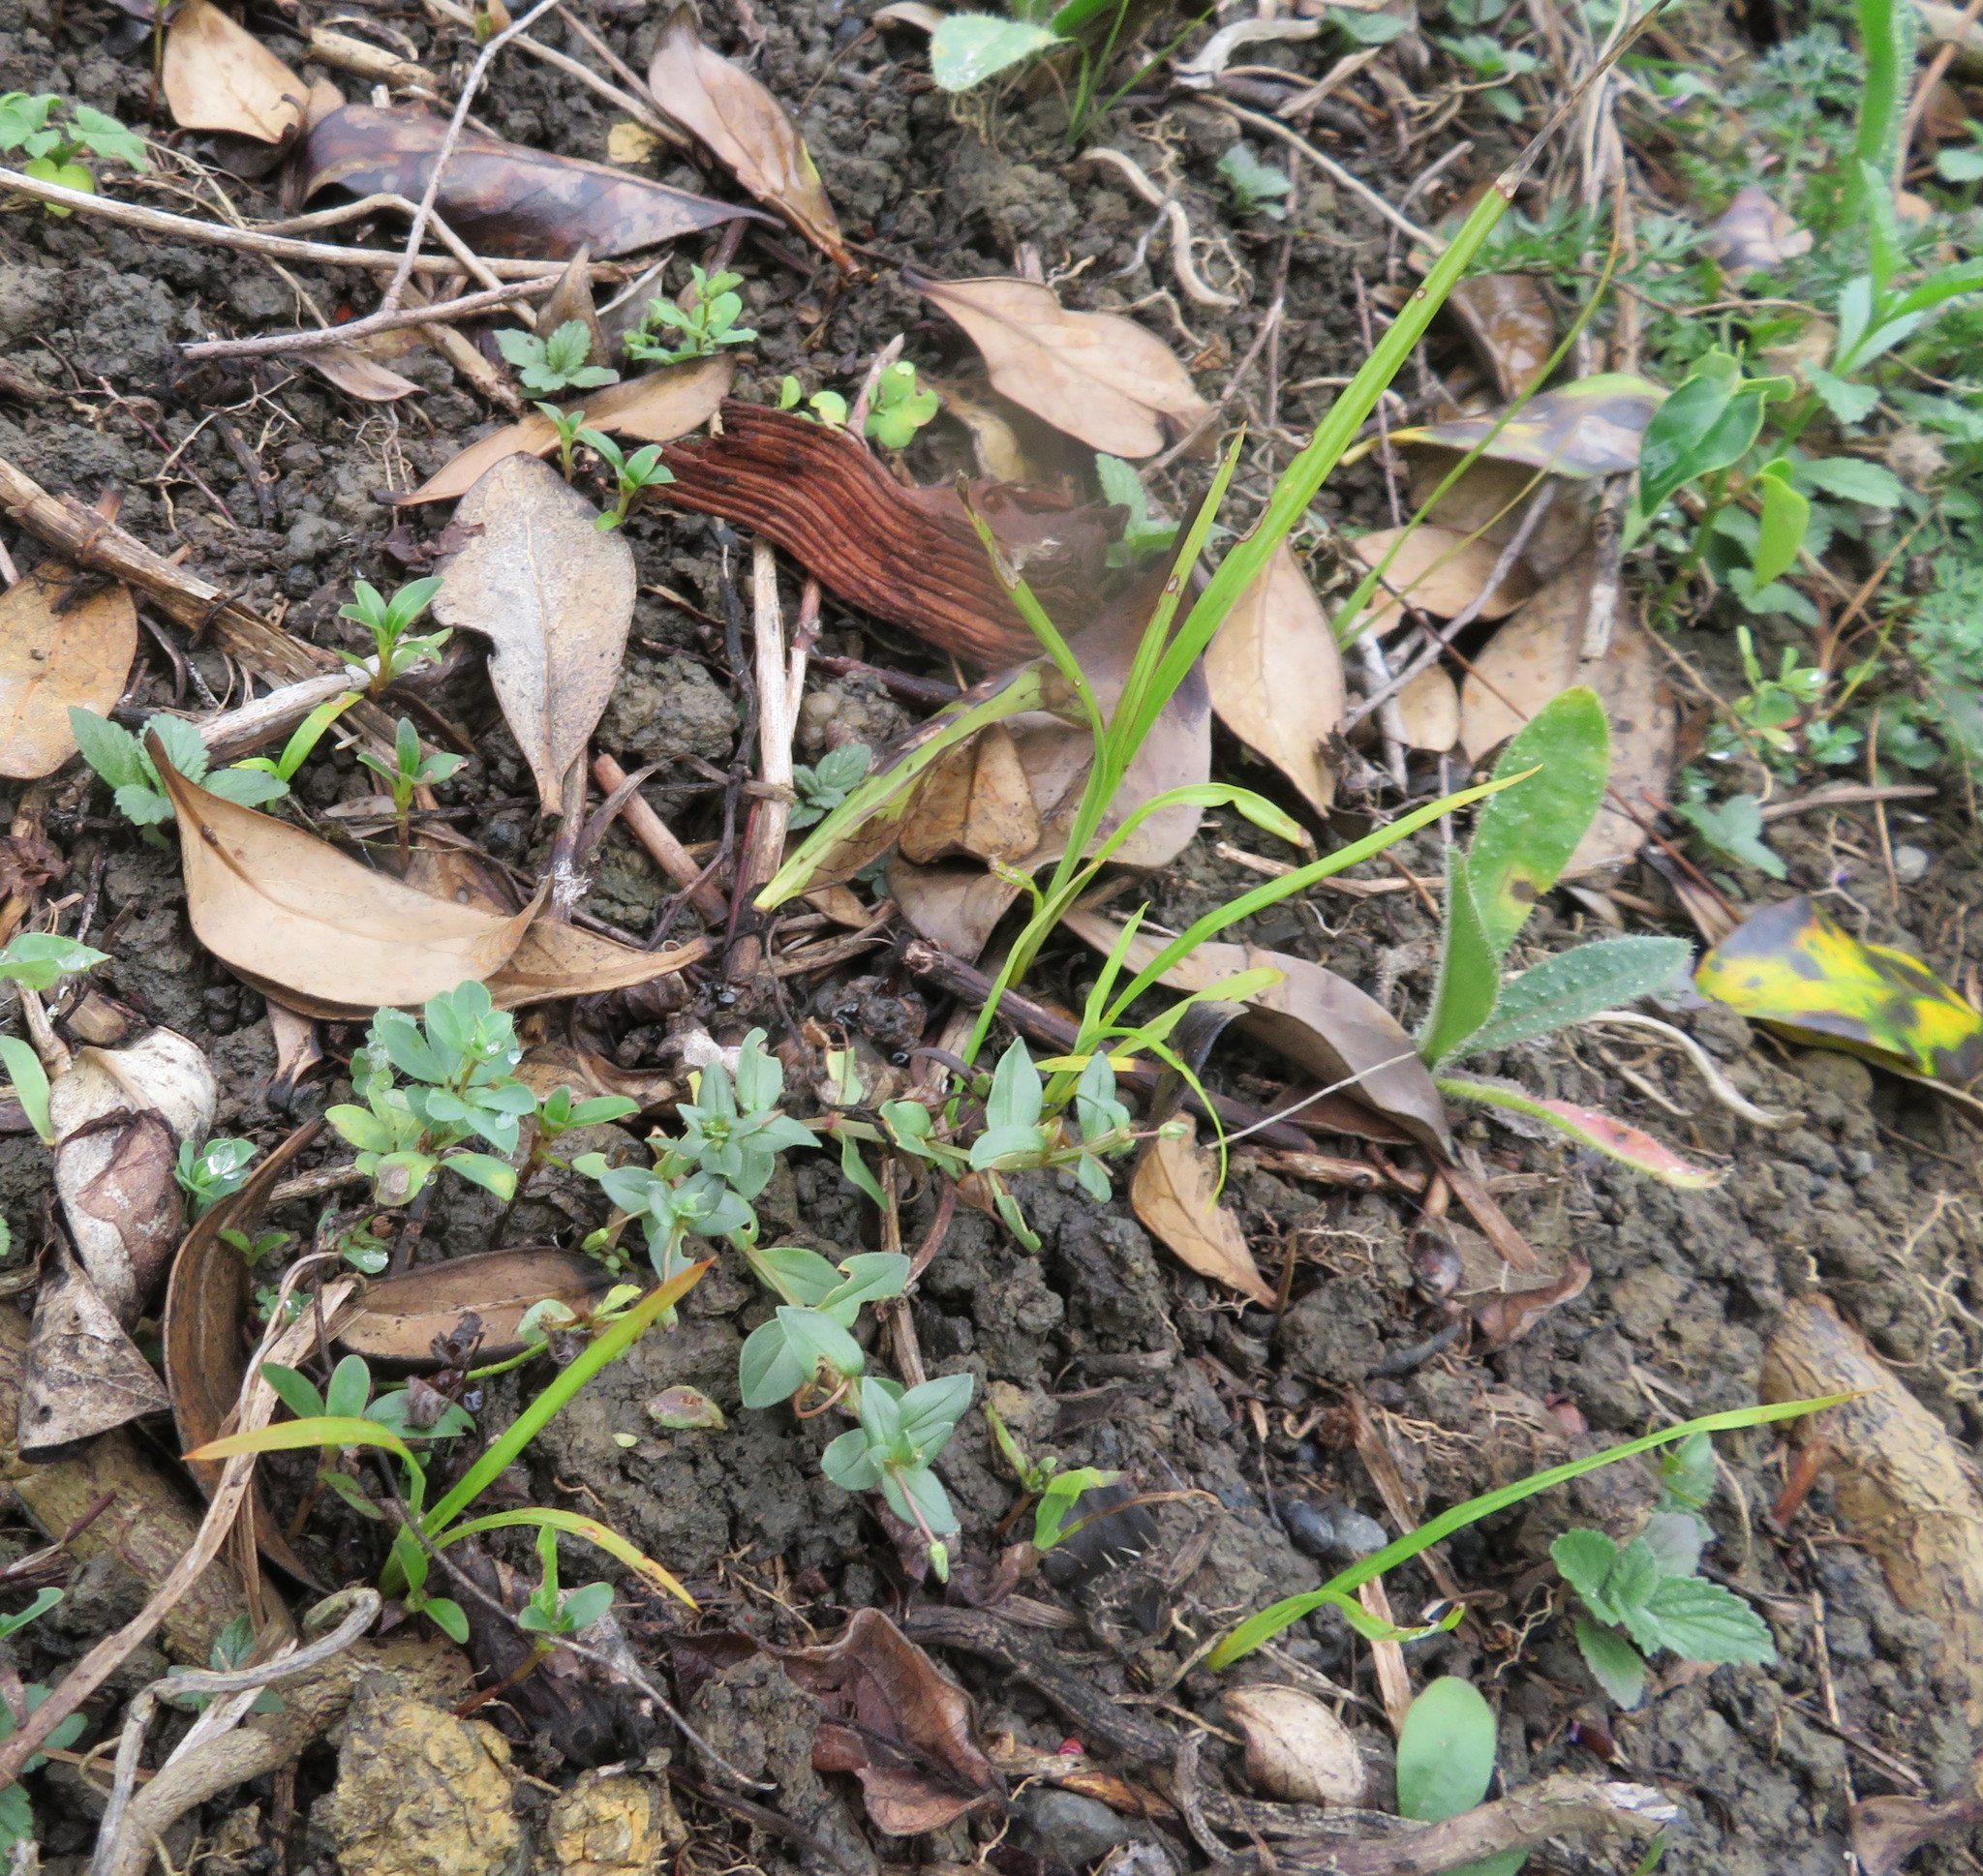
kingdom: Plantae
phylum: Tracheophyta
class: Liliopsida
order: Asparagales
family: Asparagaceae
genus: Cordyline
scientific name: Cordyline australis
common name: Cabbage-palm
